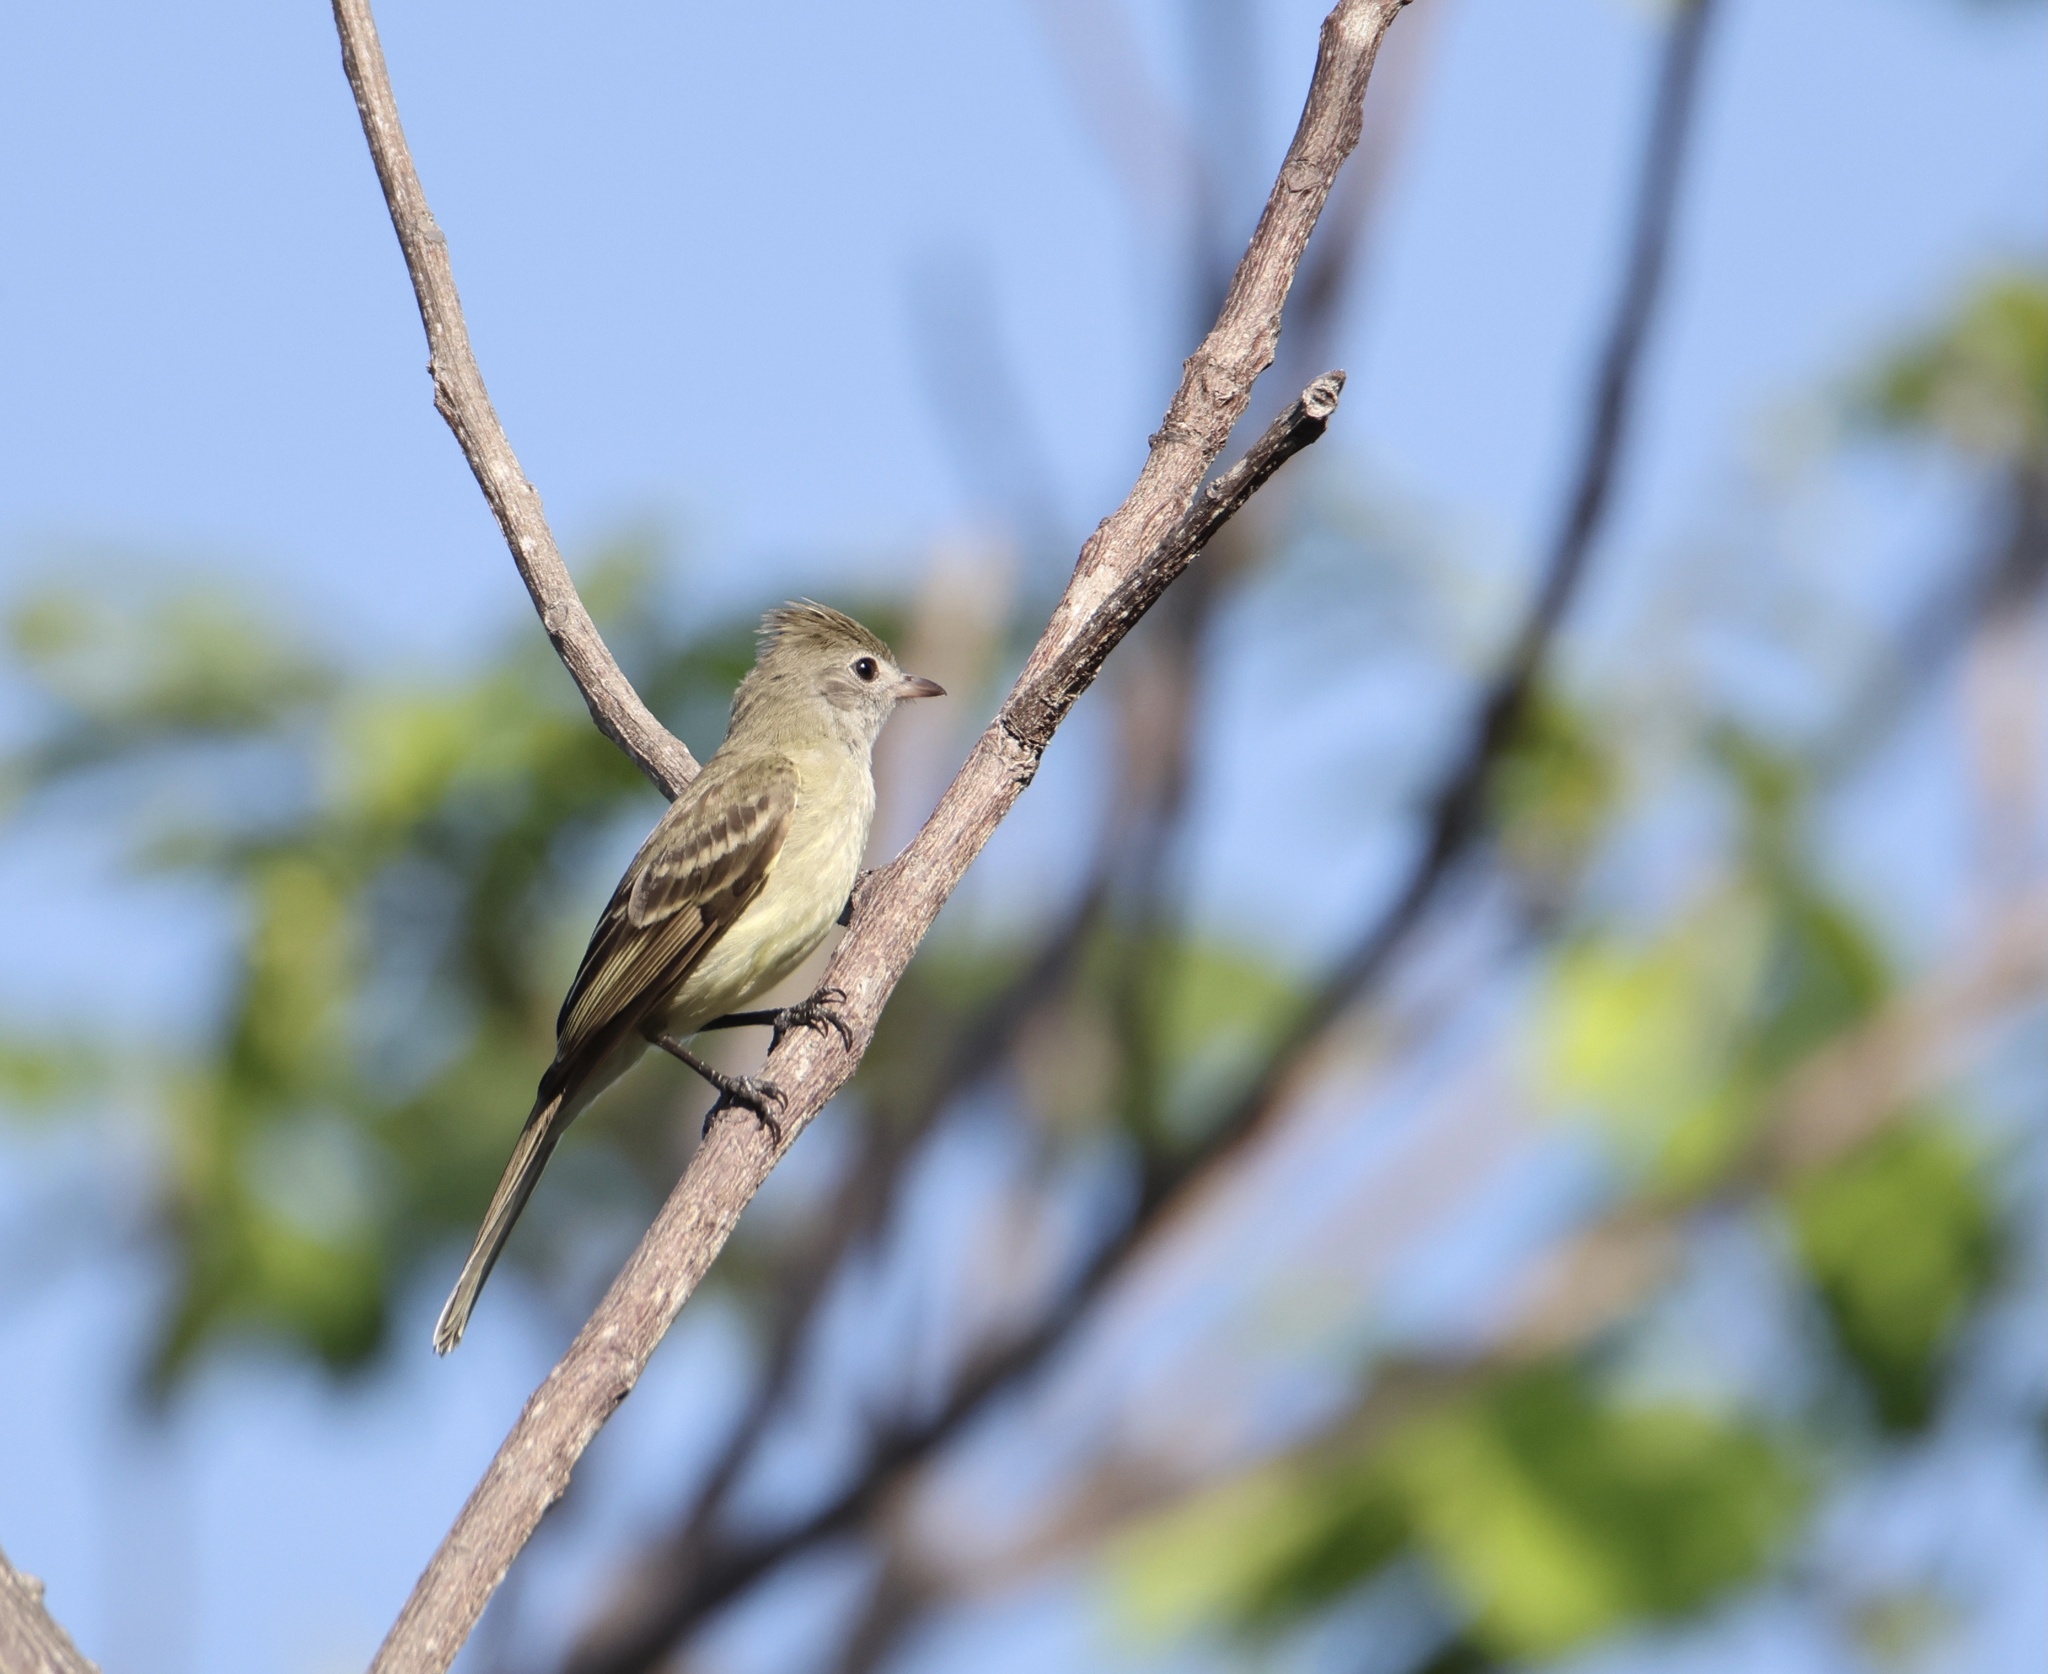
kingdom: Animalia
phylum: Chordata
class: Aves
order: Passeriformes
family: Tyrannidae
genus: Elaenia
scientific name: Elaenia flavogaster
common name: Yellow-bellied elaenia
